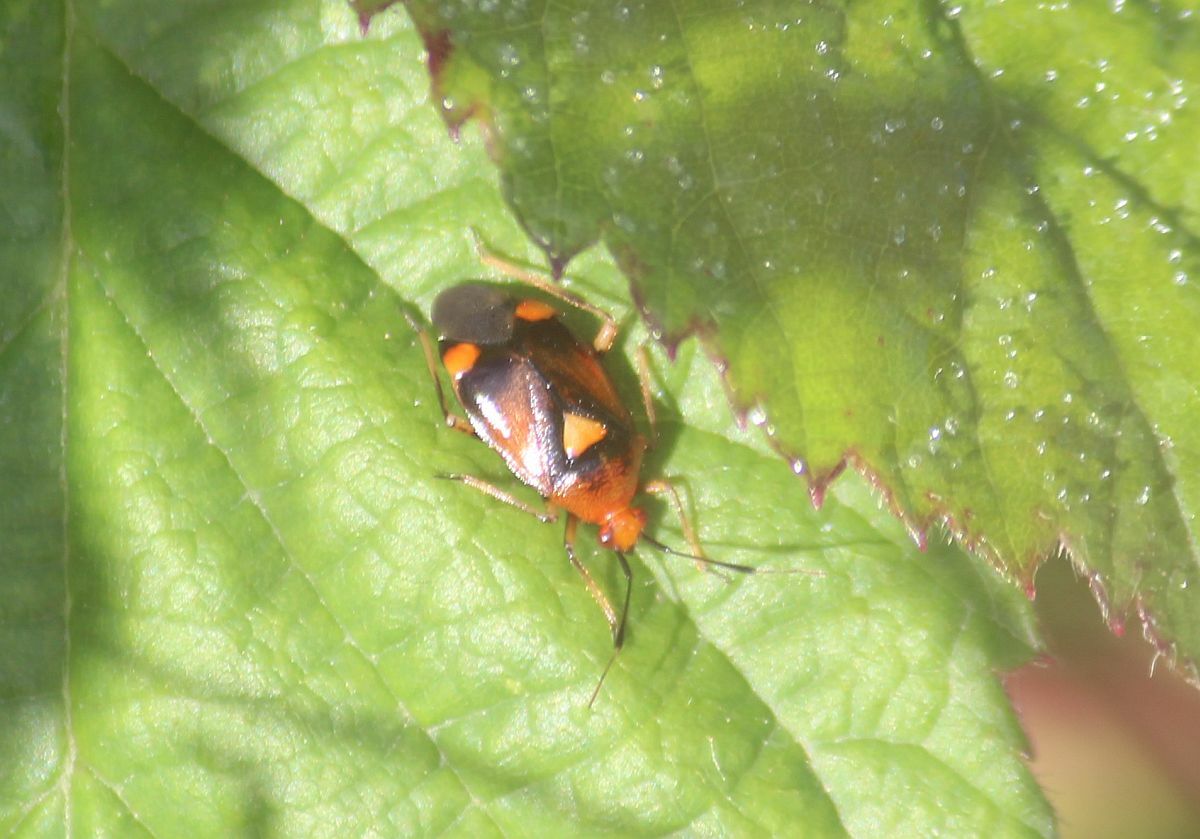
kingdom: Animalia
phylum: Arthropoda
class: Insecta
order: Hemiptera
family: Miridae
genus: Deraeocoris
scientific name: Deraeocoris ruber
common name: Plant bug
